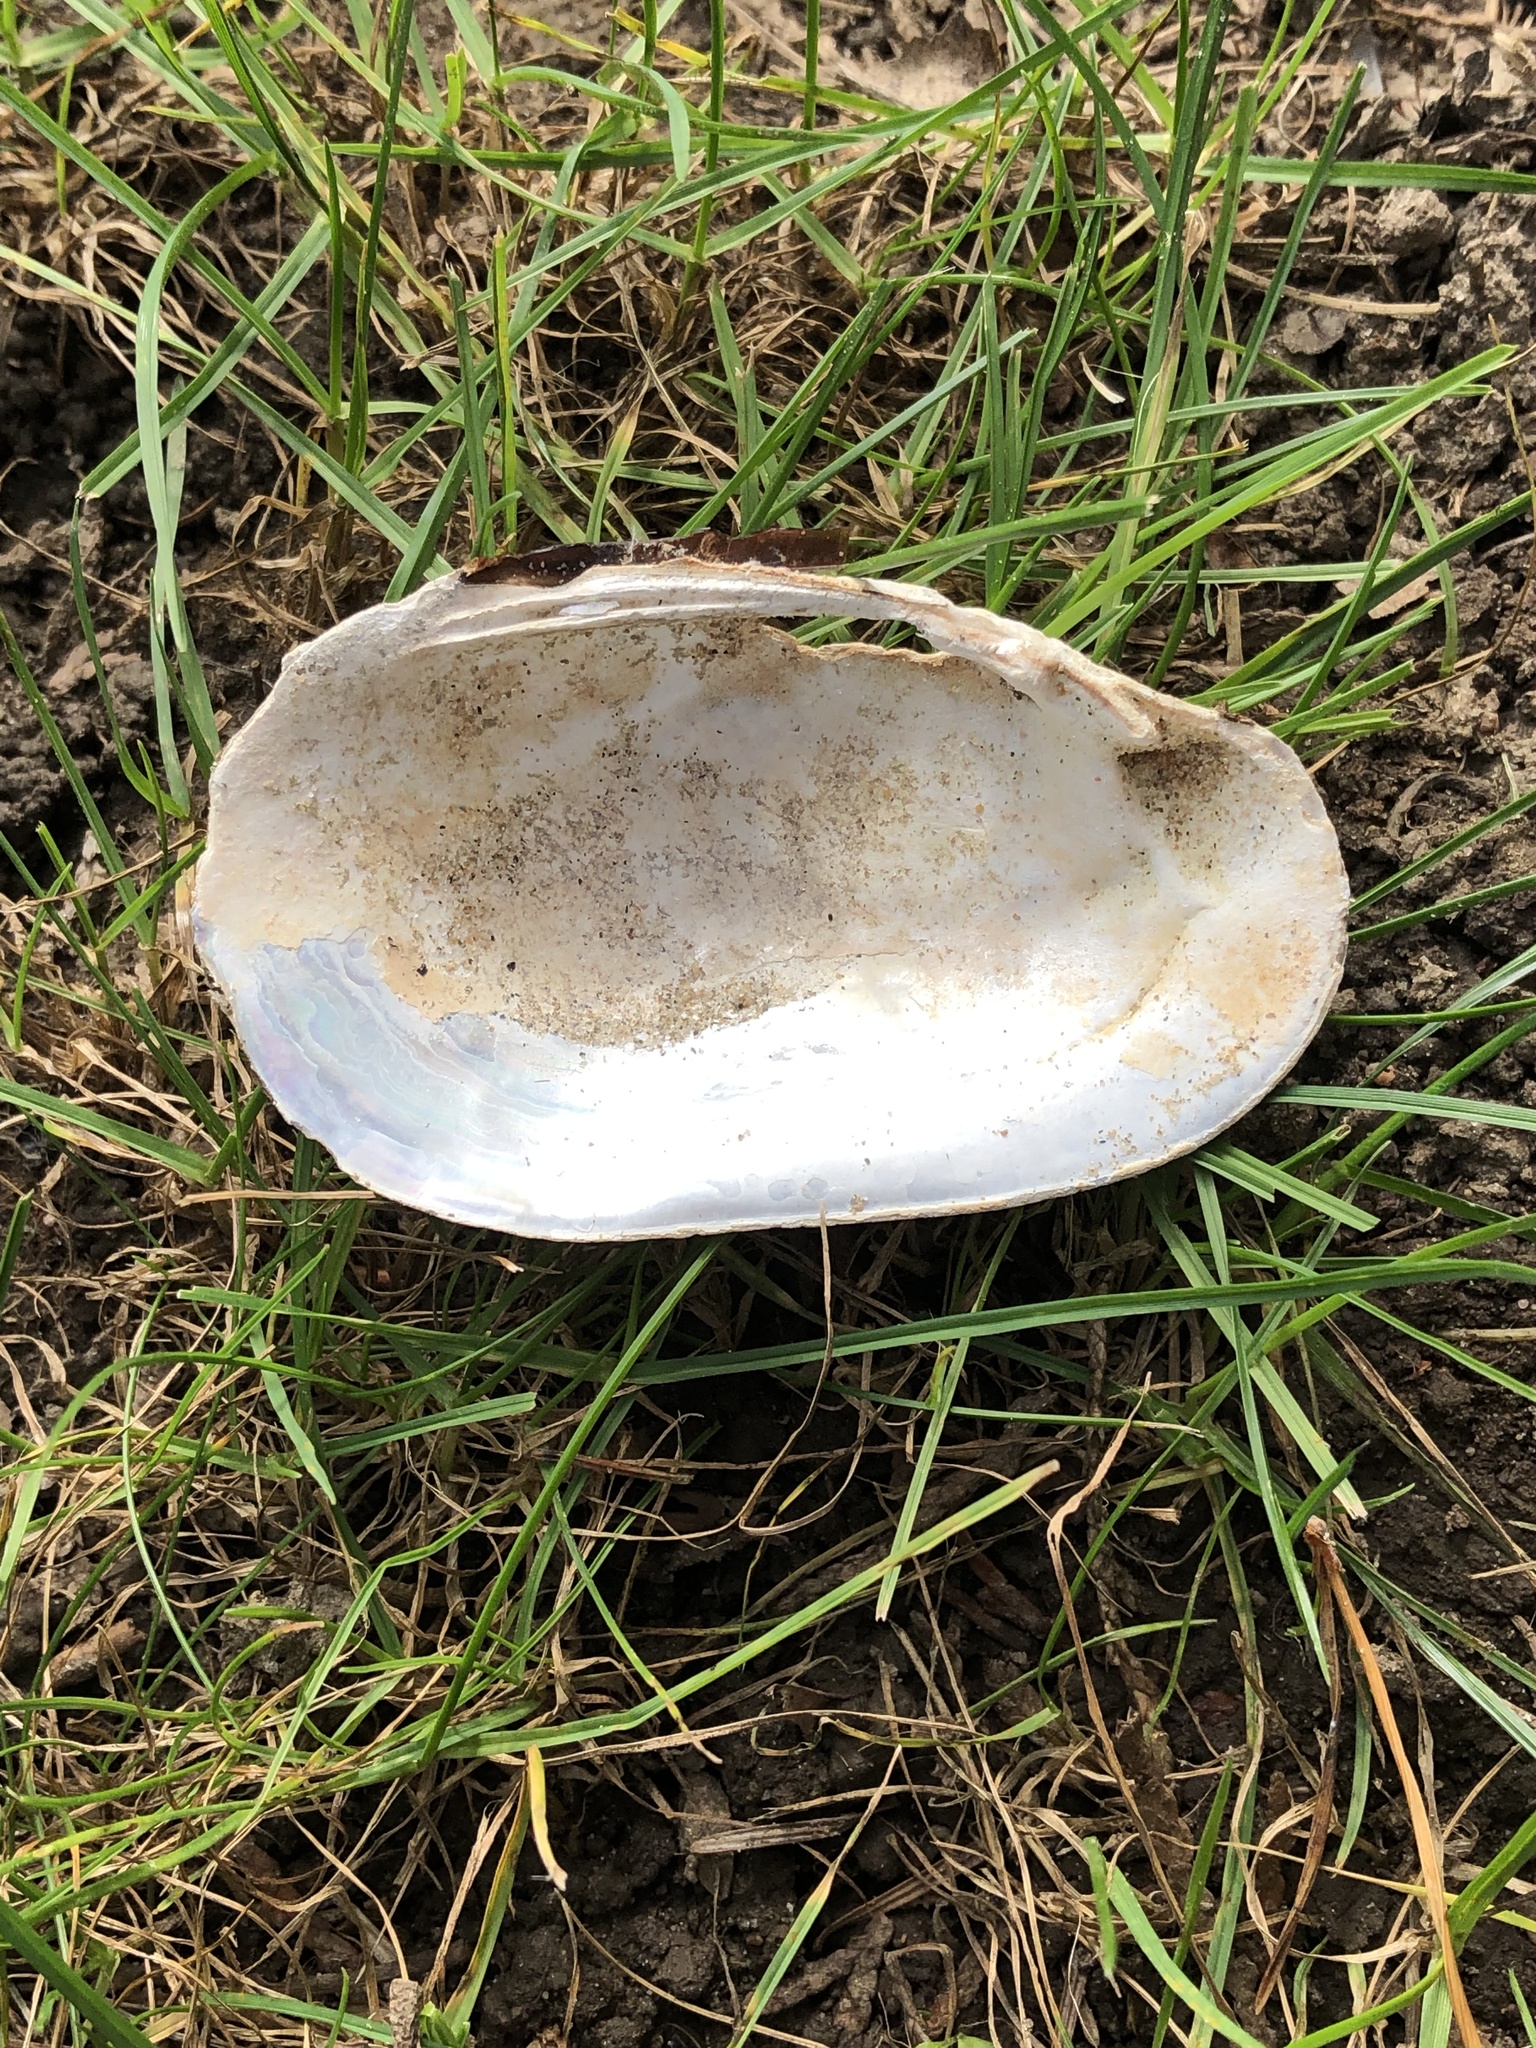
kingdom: Animalia
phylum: Mollusca
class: Bivalvia
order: Unionida
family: Unionidae
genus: Lampsilis
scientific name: Lampsilis siliquoidea
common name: Fatmucket
